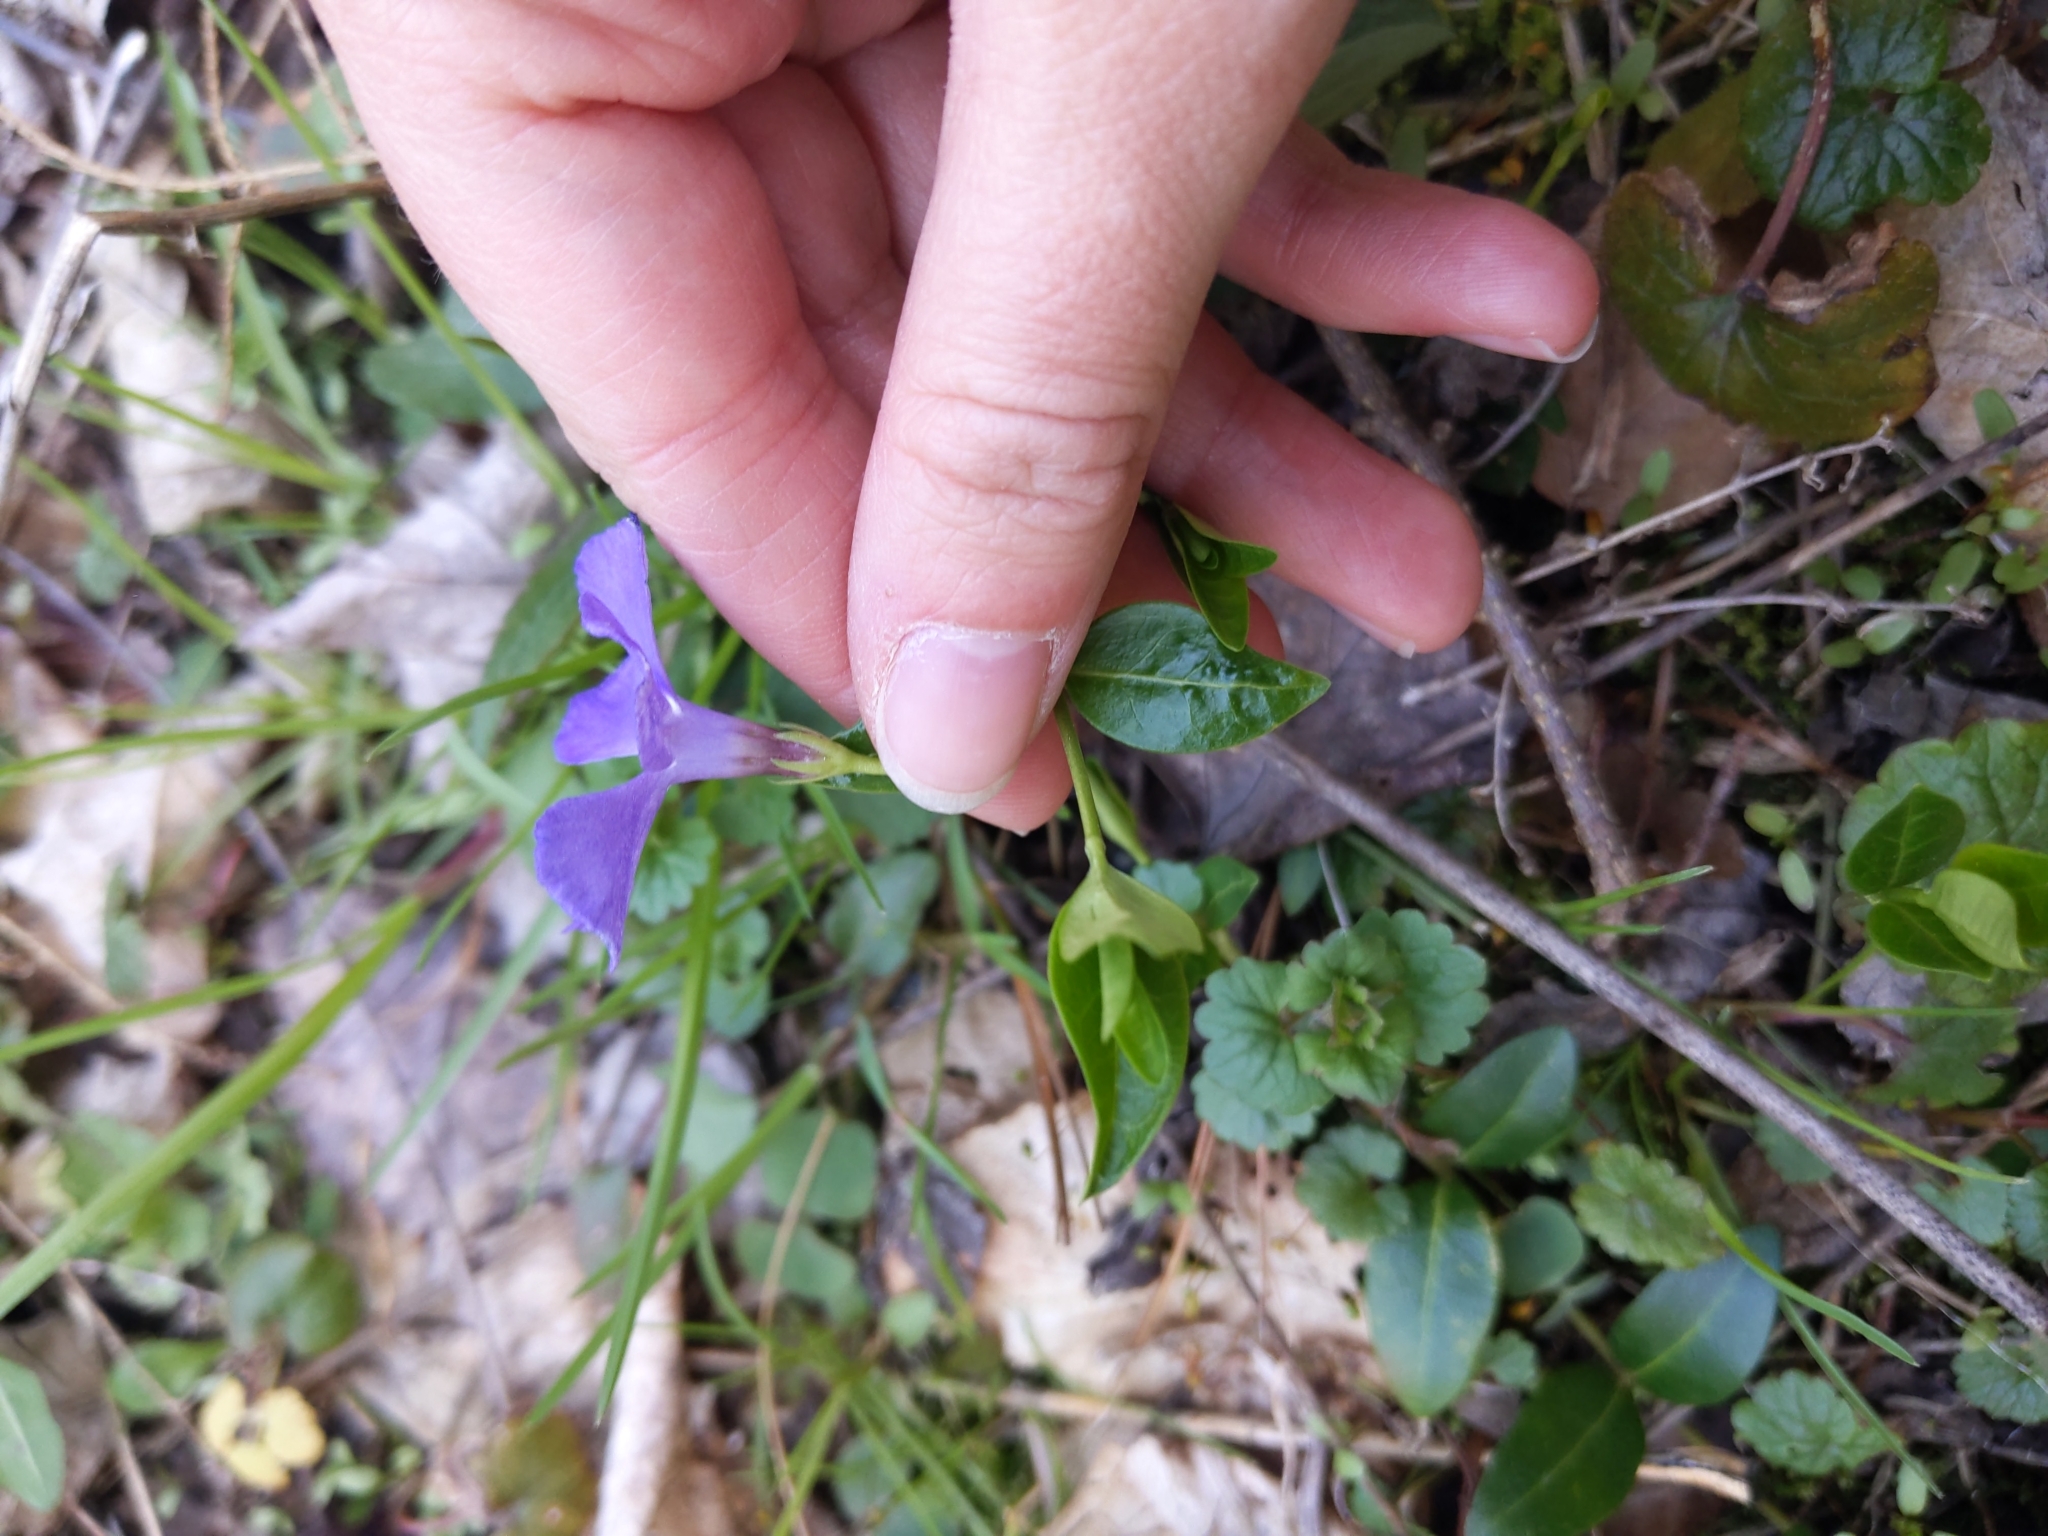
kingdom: Plantae
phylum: Tracheophyta
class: Magnoliopsida
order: Gentianales
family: Apocynaceae
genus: Vinca
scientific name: Vinca minor
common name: Lesser periwinkle
